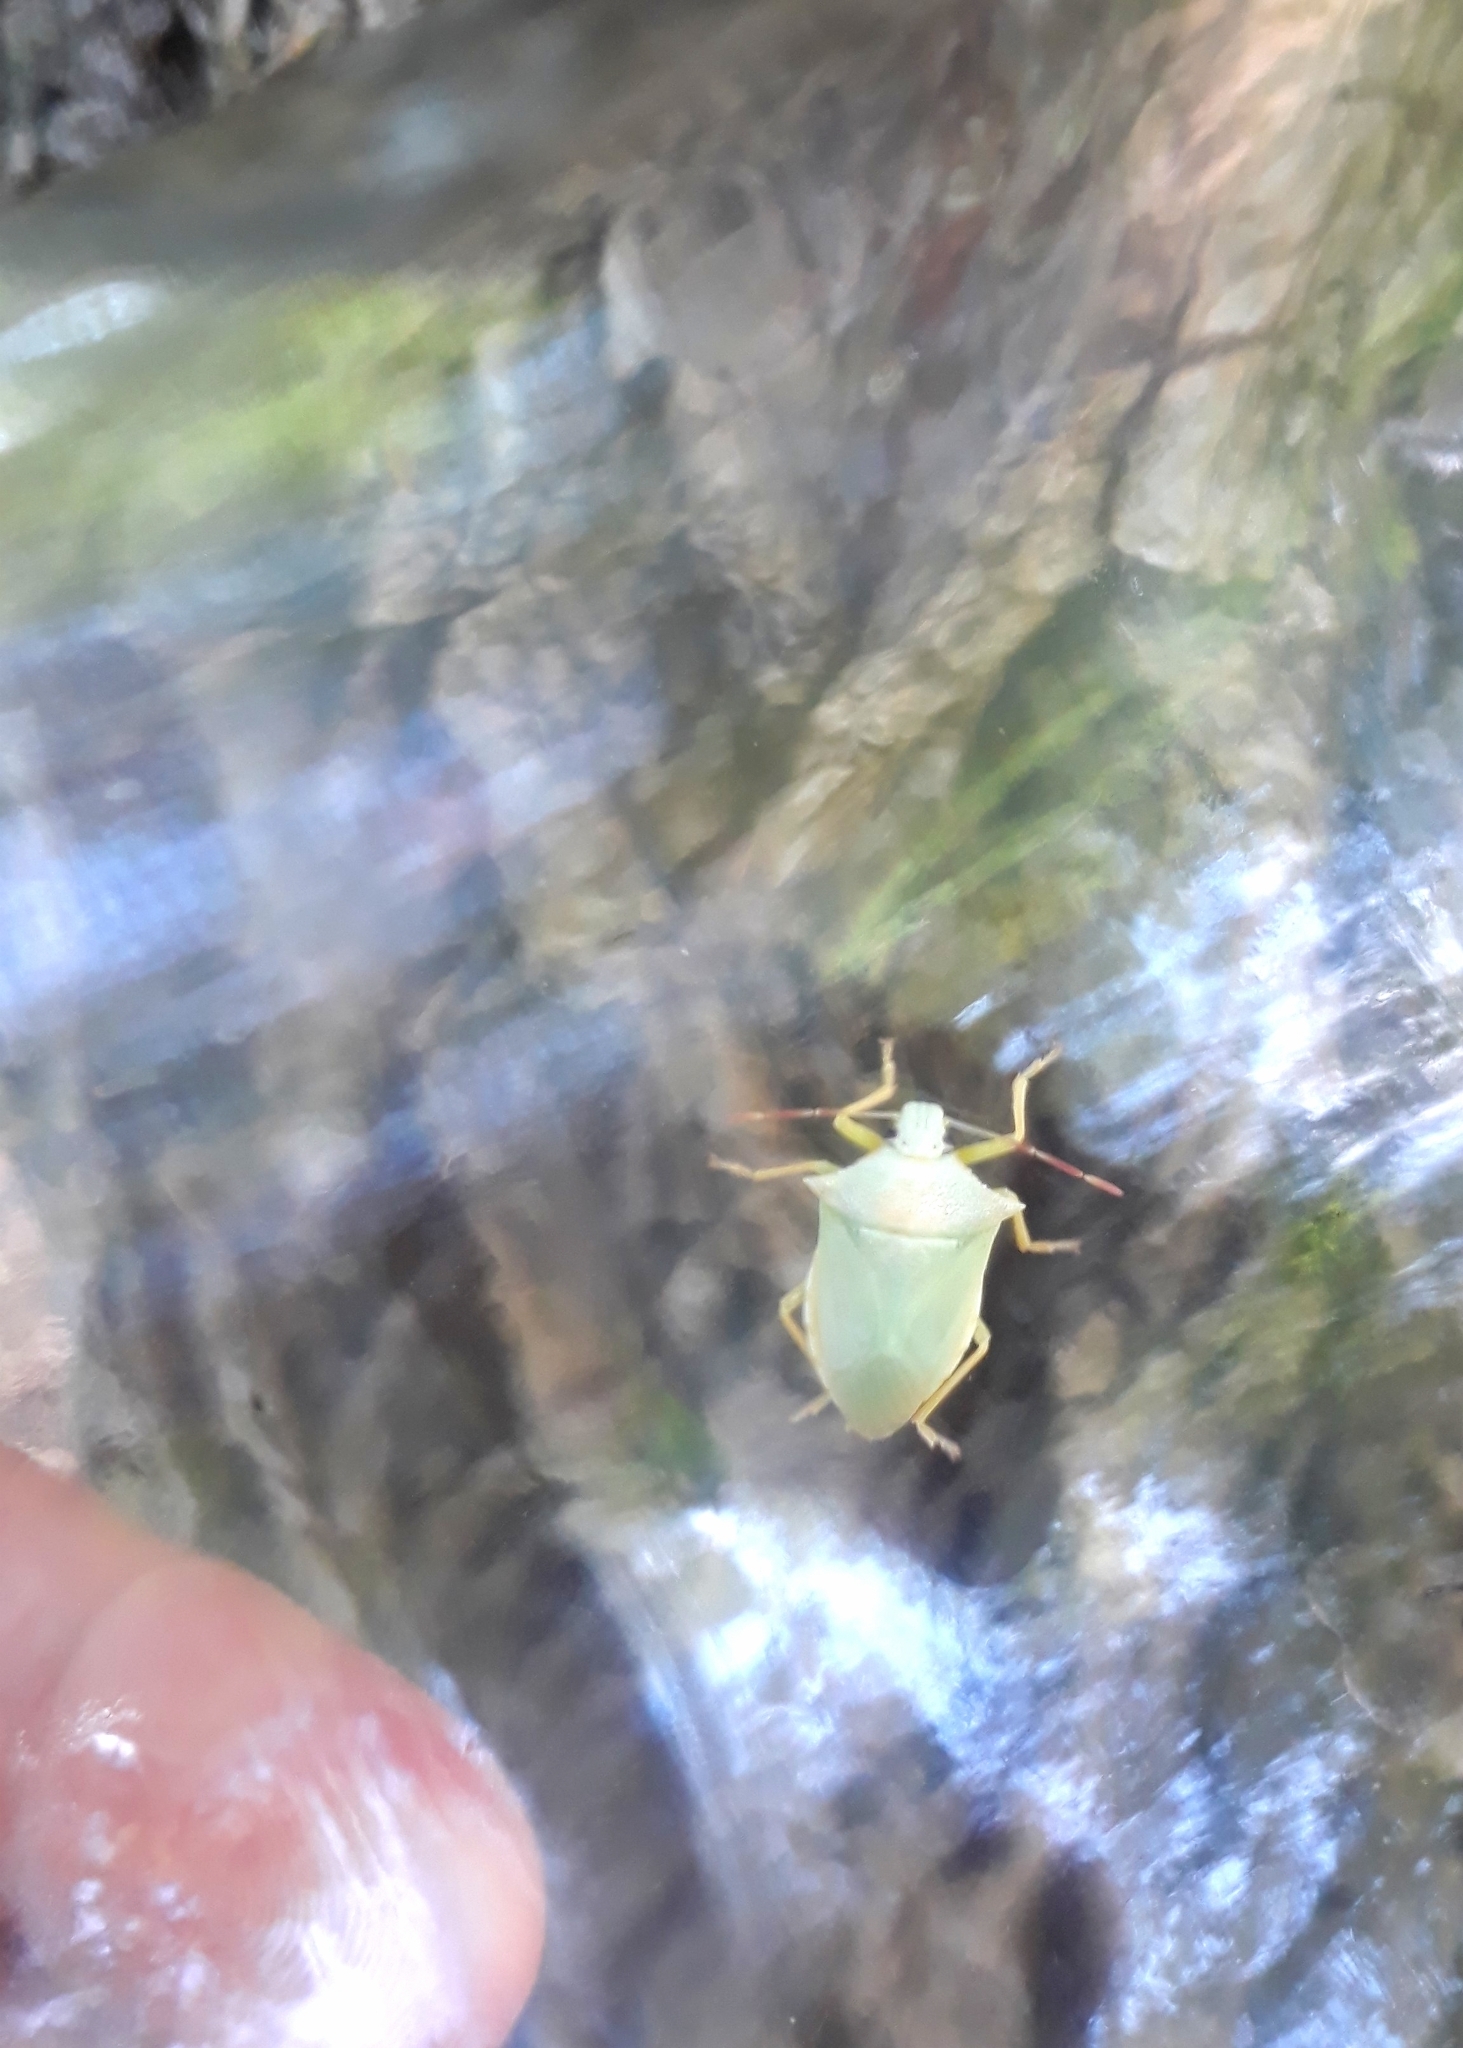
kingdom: Animalia
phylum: Arthropoda
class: Insecta
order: Hemiptera
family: Pentatomidae
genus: Brontocoris
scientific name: Brontocoris tabidus
